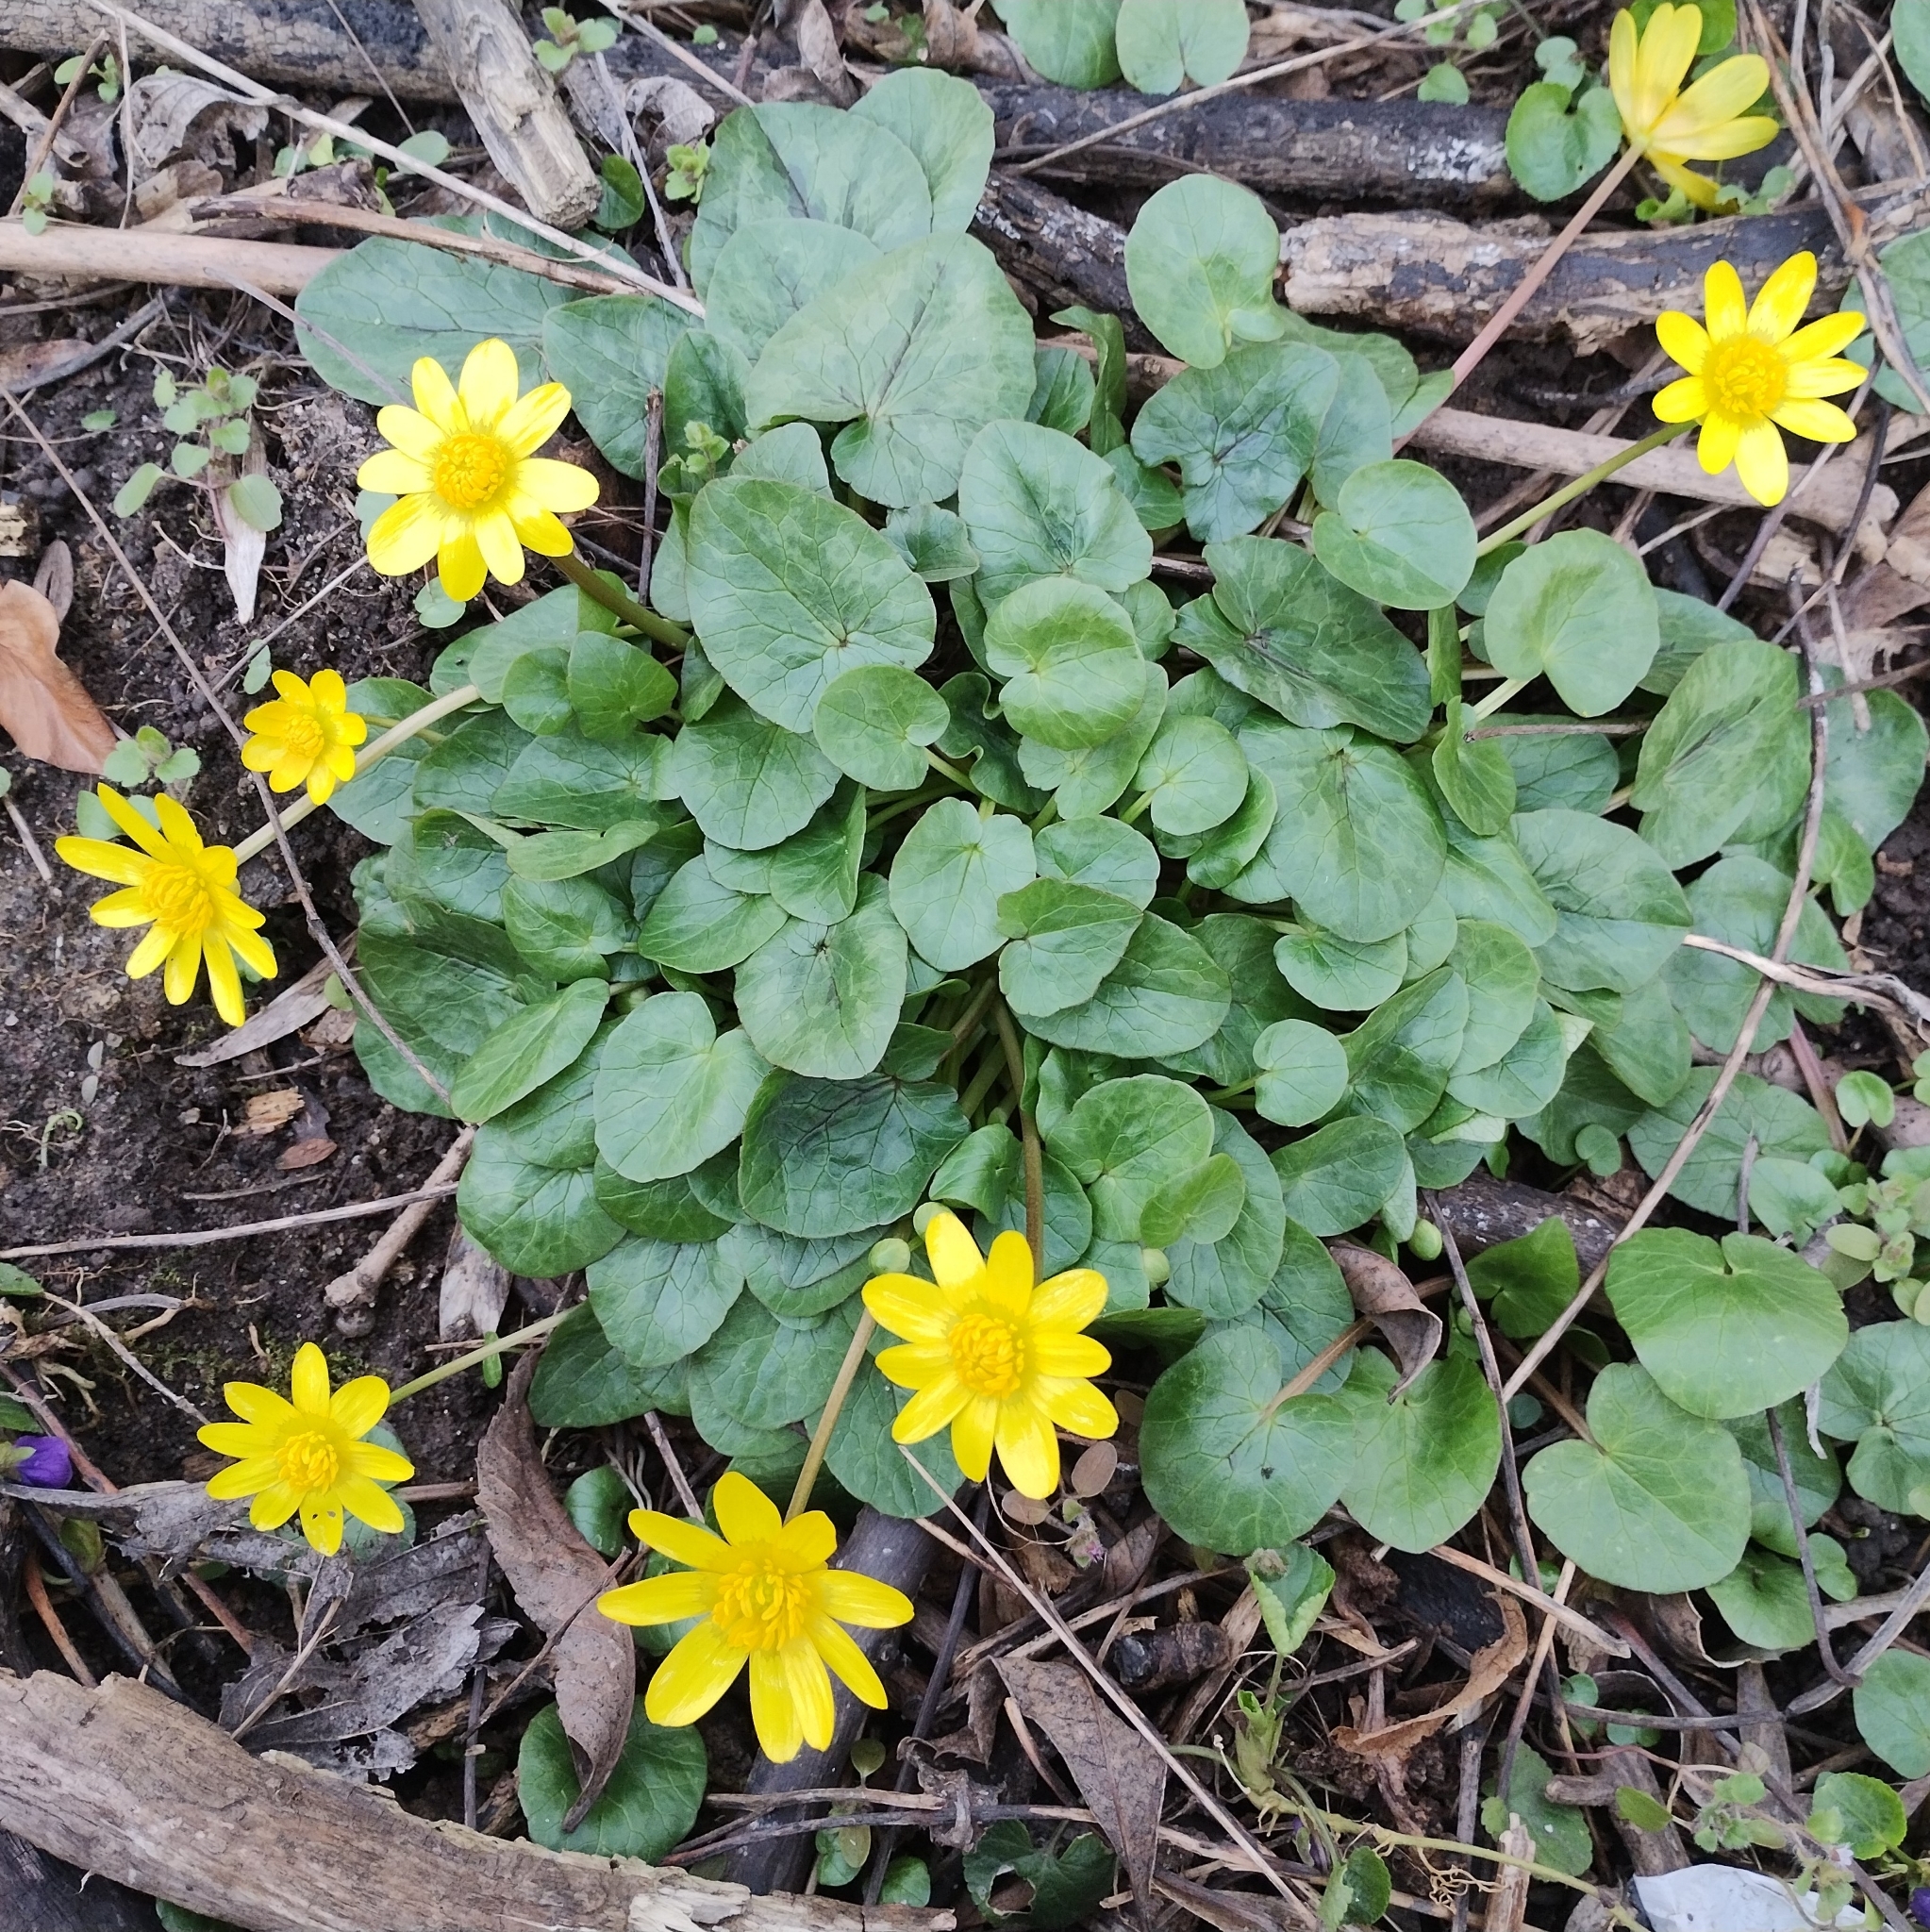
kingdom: Plantae
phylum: Tracheophyta
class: Magnoliopsida
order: Ranunculales
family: Ranunculaceae
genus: Ficaria
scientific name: Ficaria verna
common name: Lesser celandine
